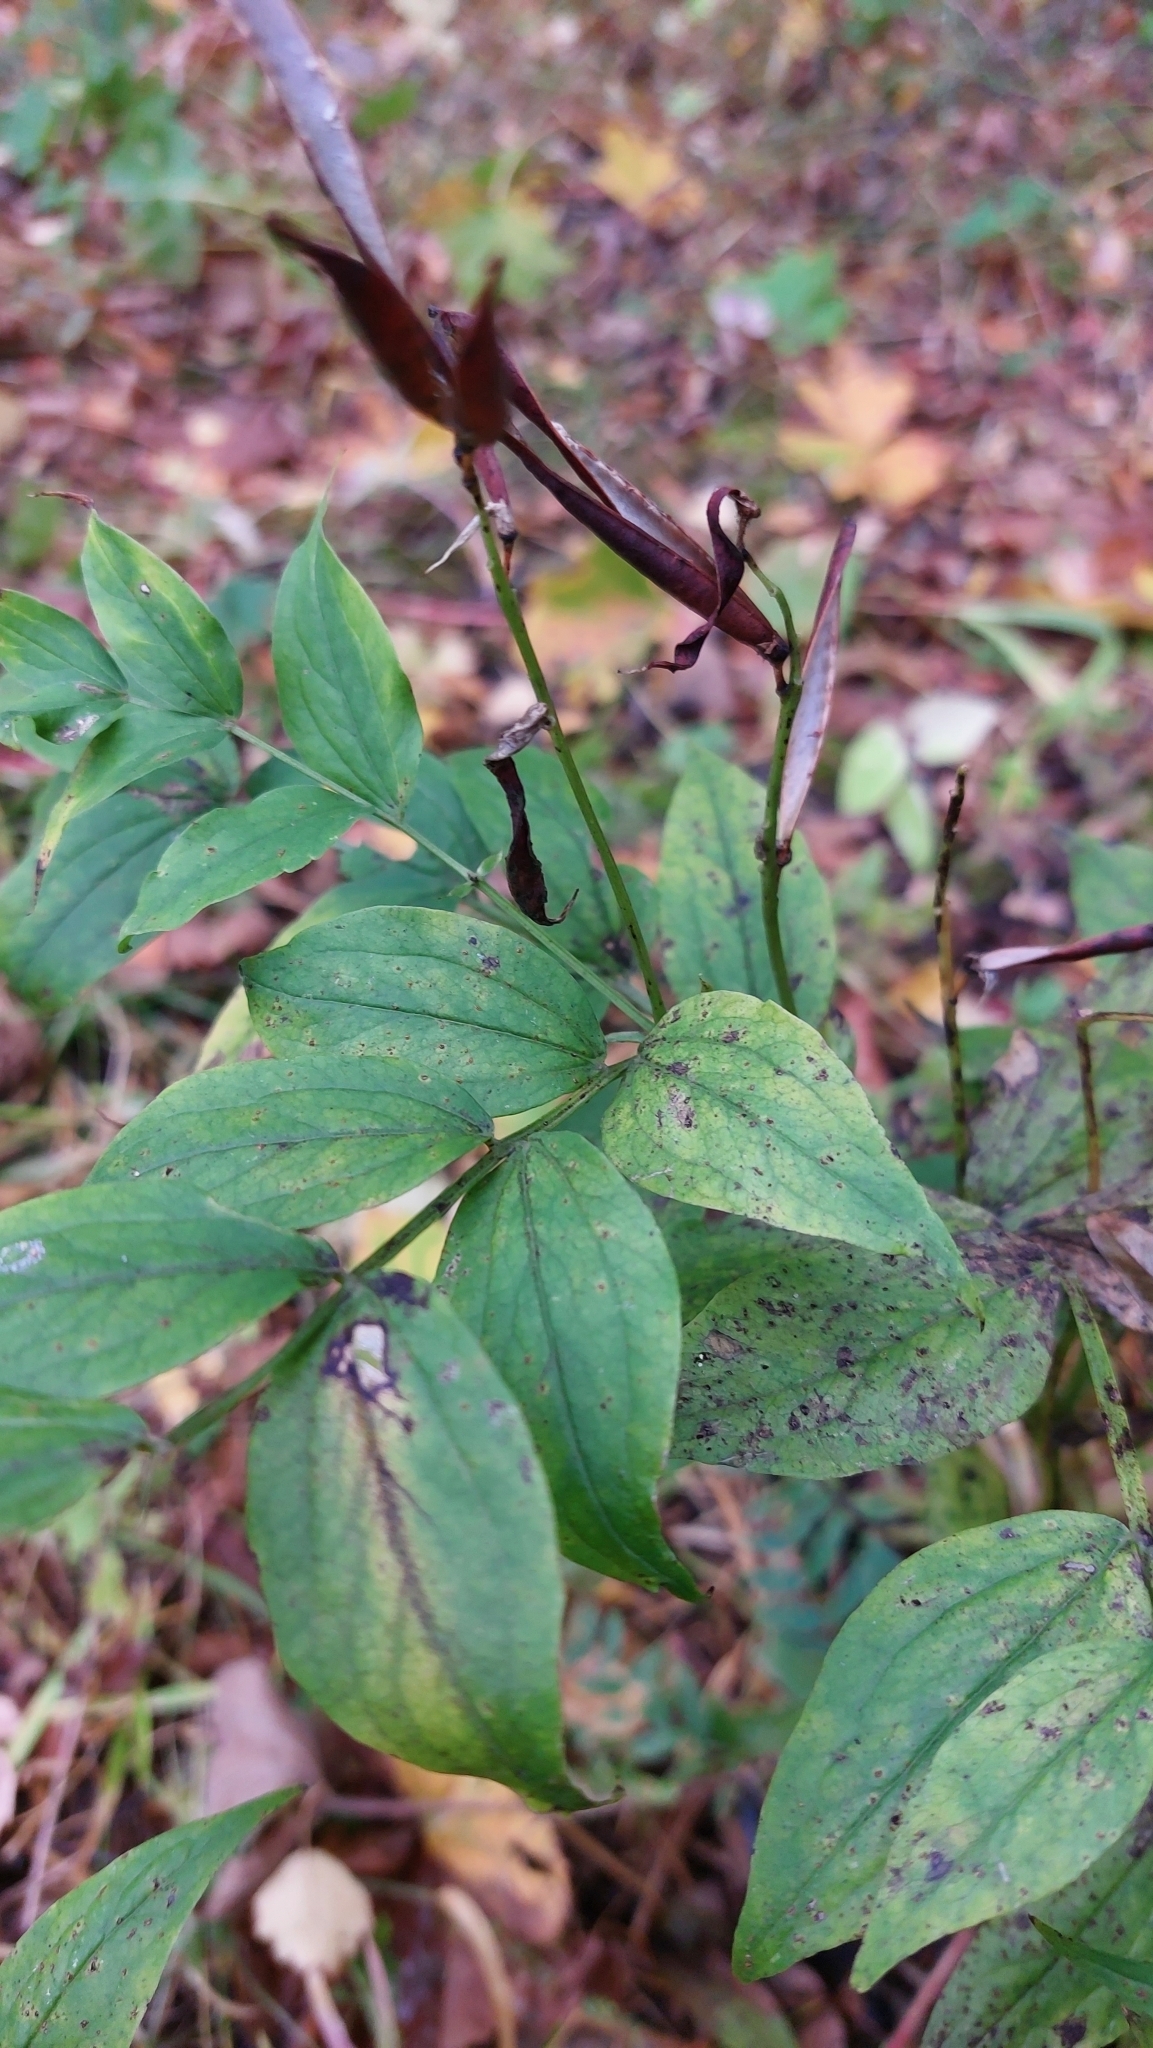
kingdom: Plantae
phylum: Tracheophyta
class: Magnoliopsida
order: Fabales
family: Fabaceae
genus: Lathyrus
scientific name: Lathyrus vernus
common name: Spring pea
